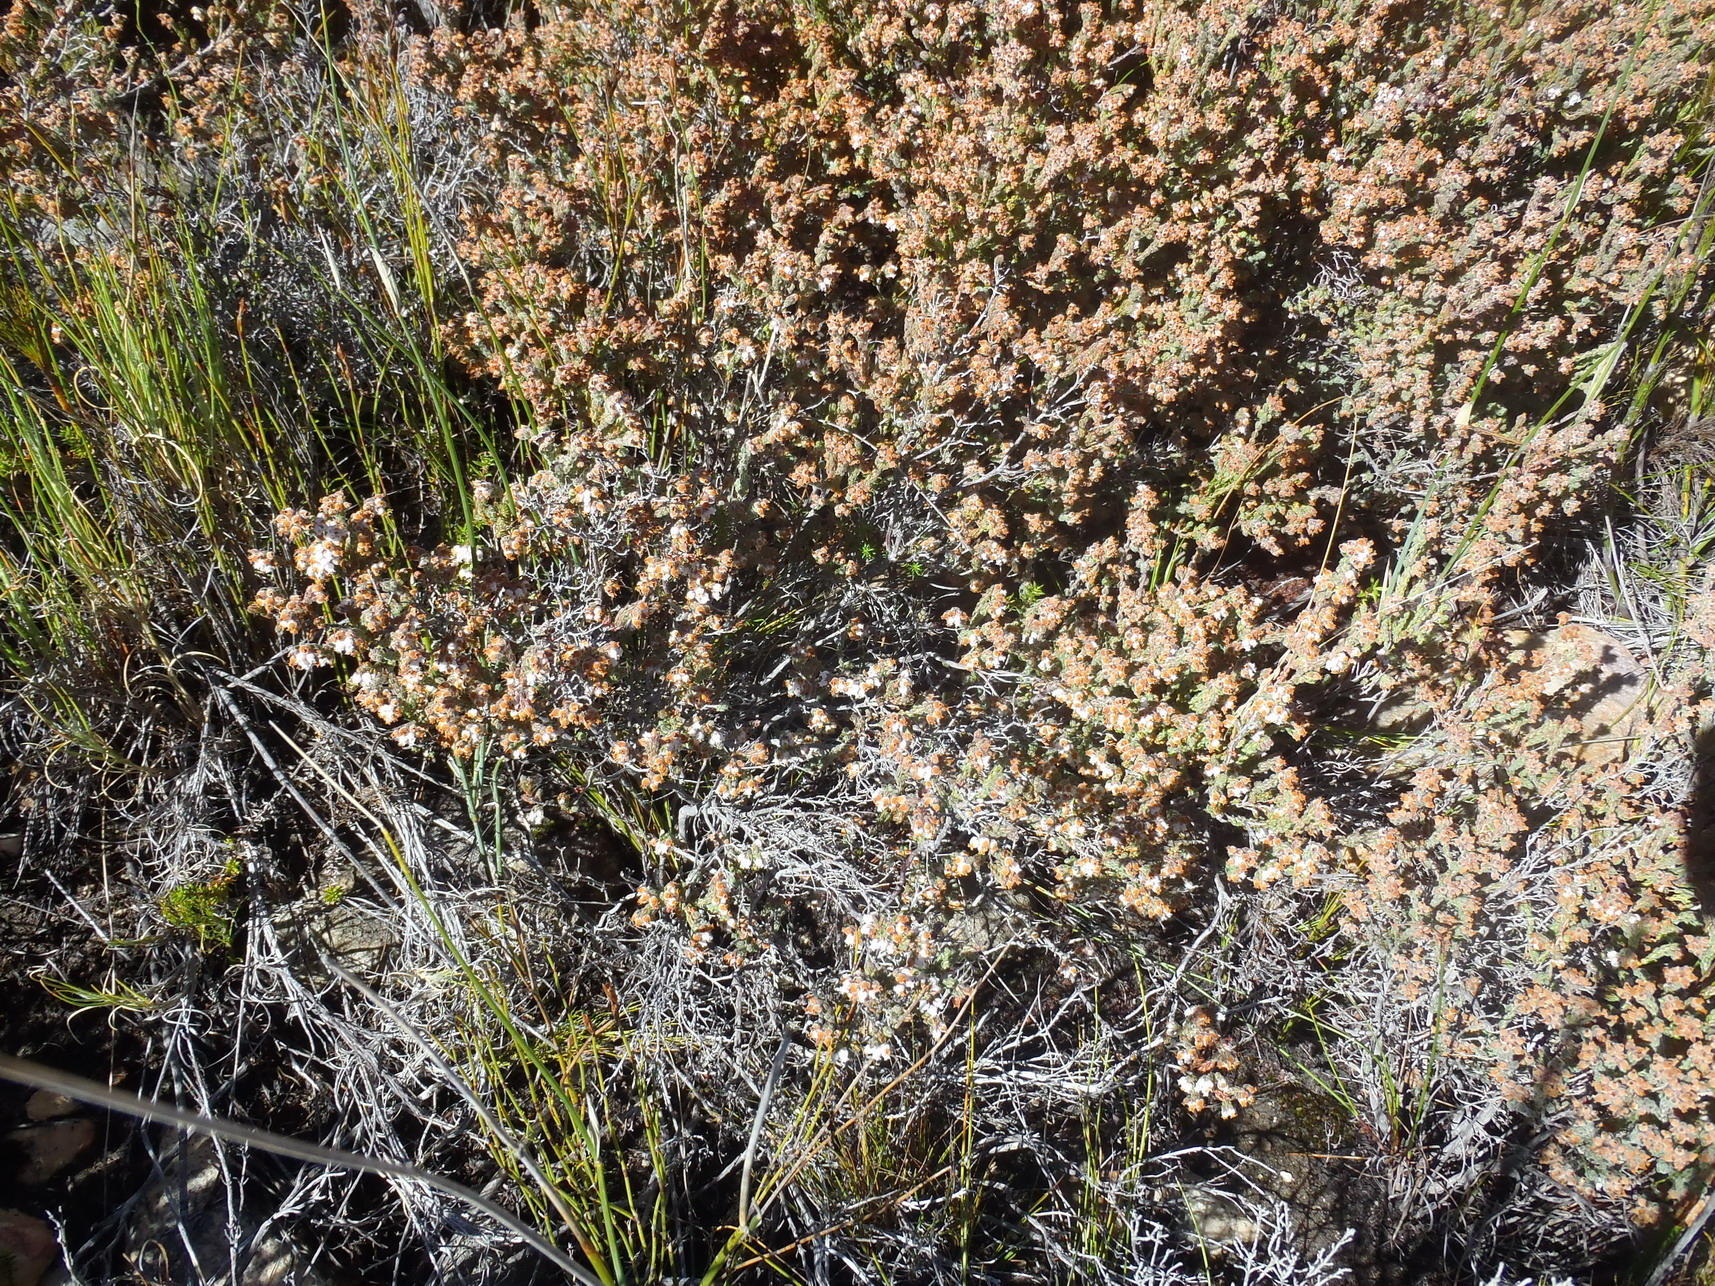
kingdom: Plantae
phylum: Tracheophyta
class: Magnoliopsida
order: Ericales
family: Ericaceae
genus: Erica
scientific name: Erica oreotragus
